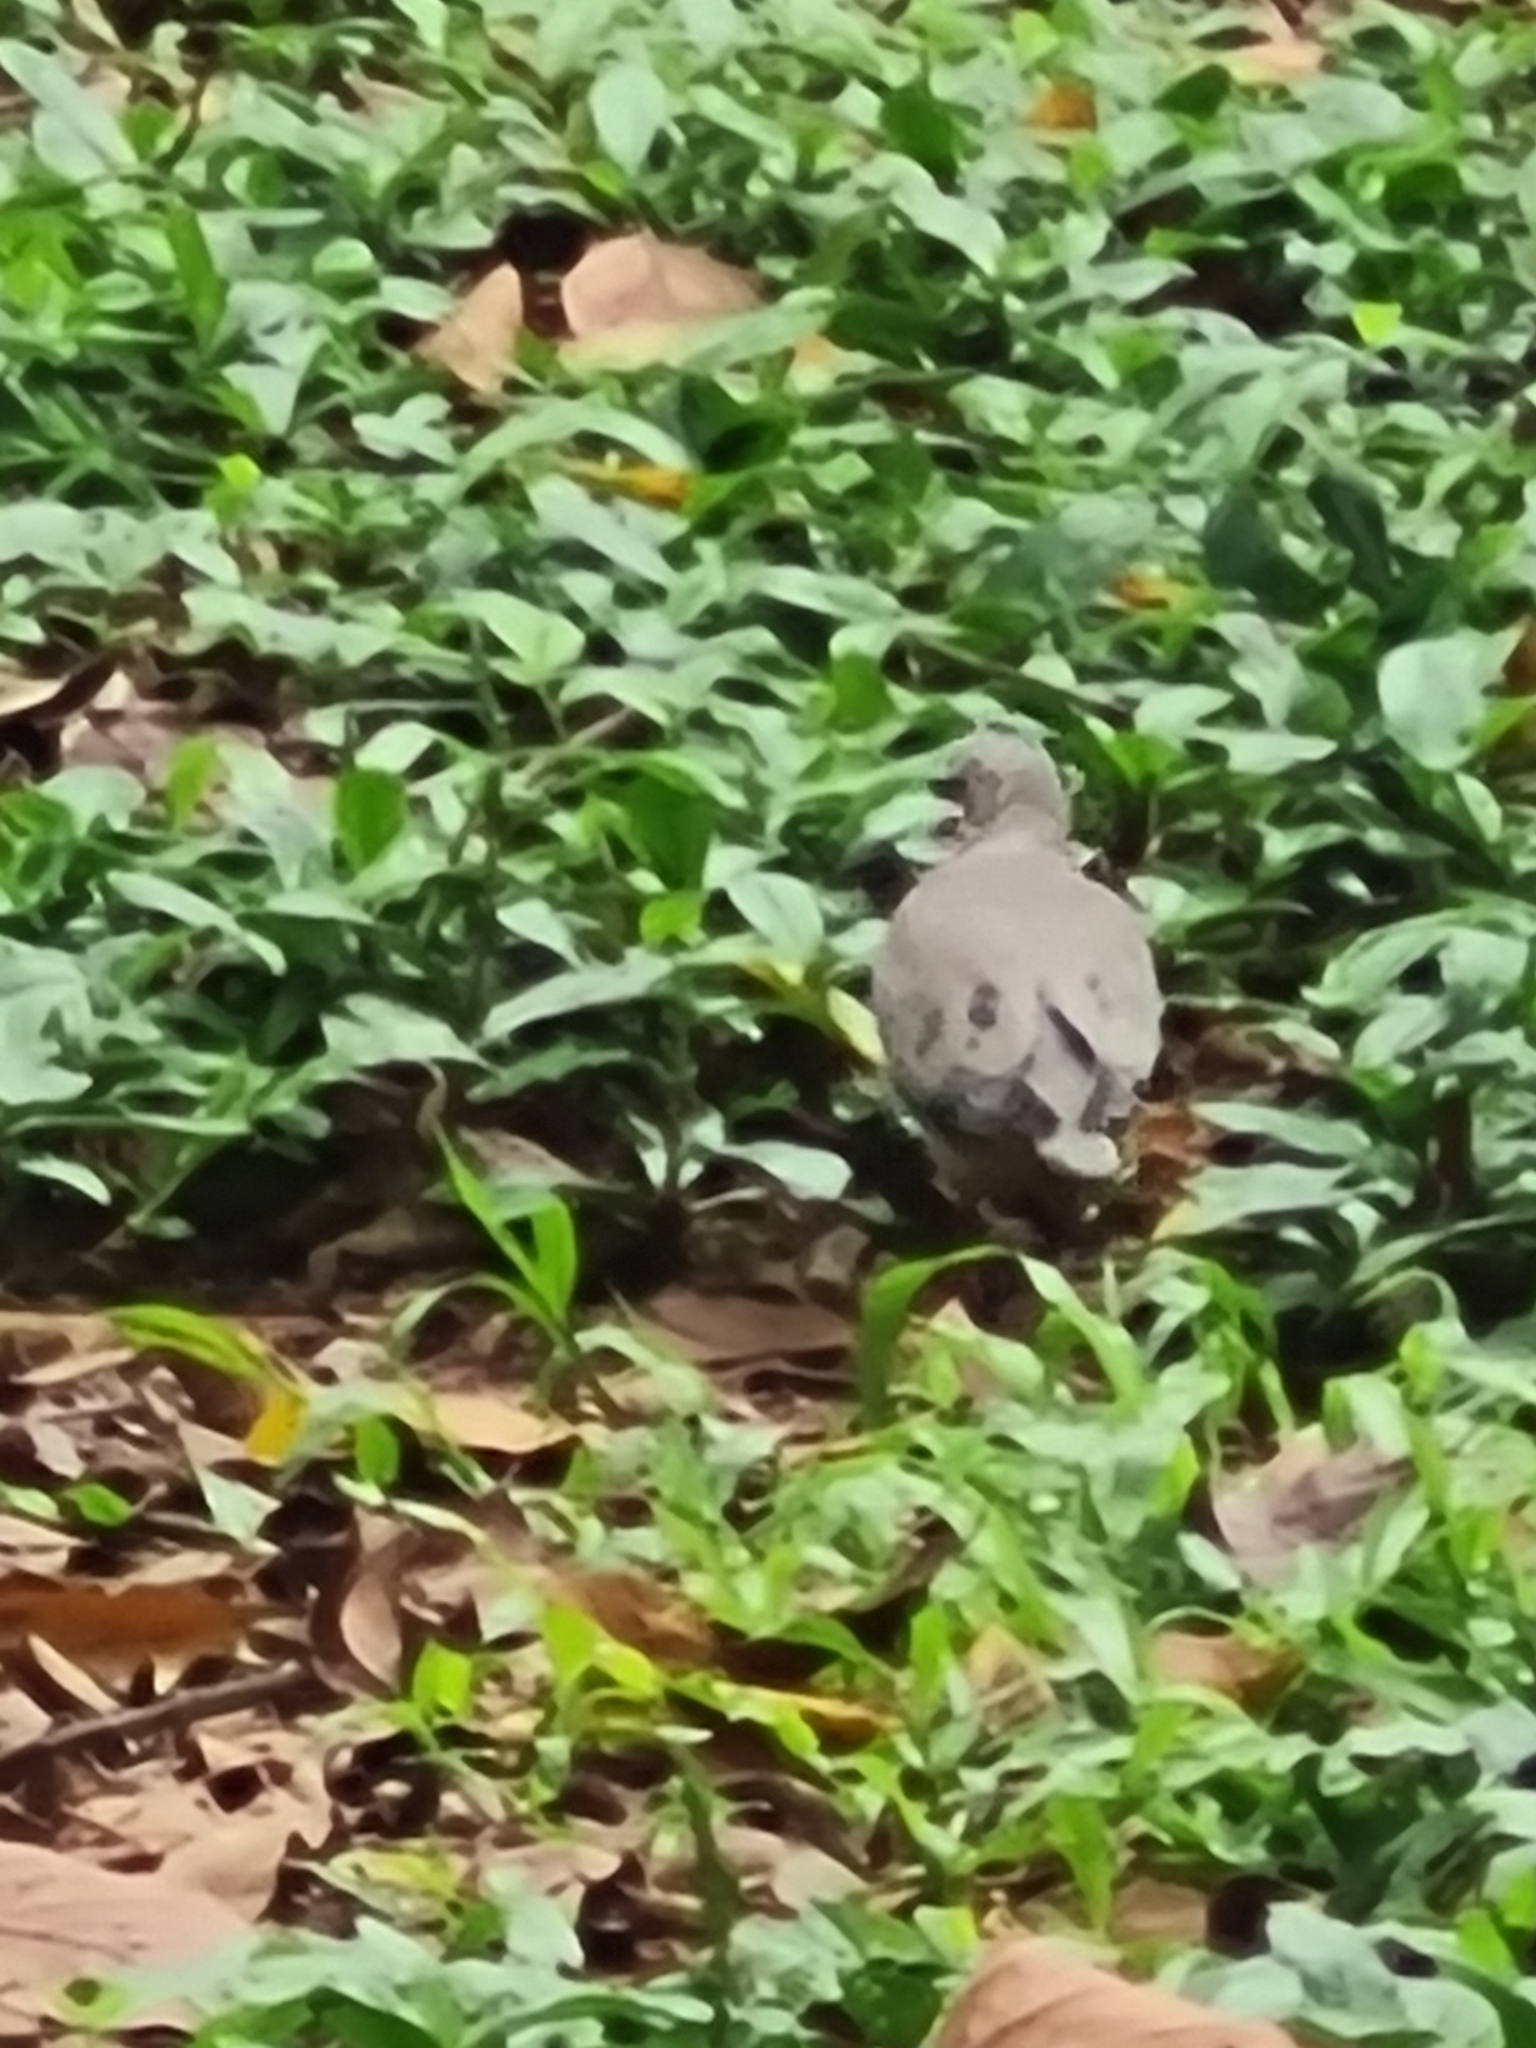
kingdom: Animalia
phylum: Chordata
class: Aves
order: Columbiformes
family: Columbidae
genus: Zenaida
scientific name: Zenaida auriculata
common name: Eared dove
